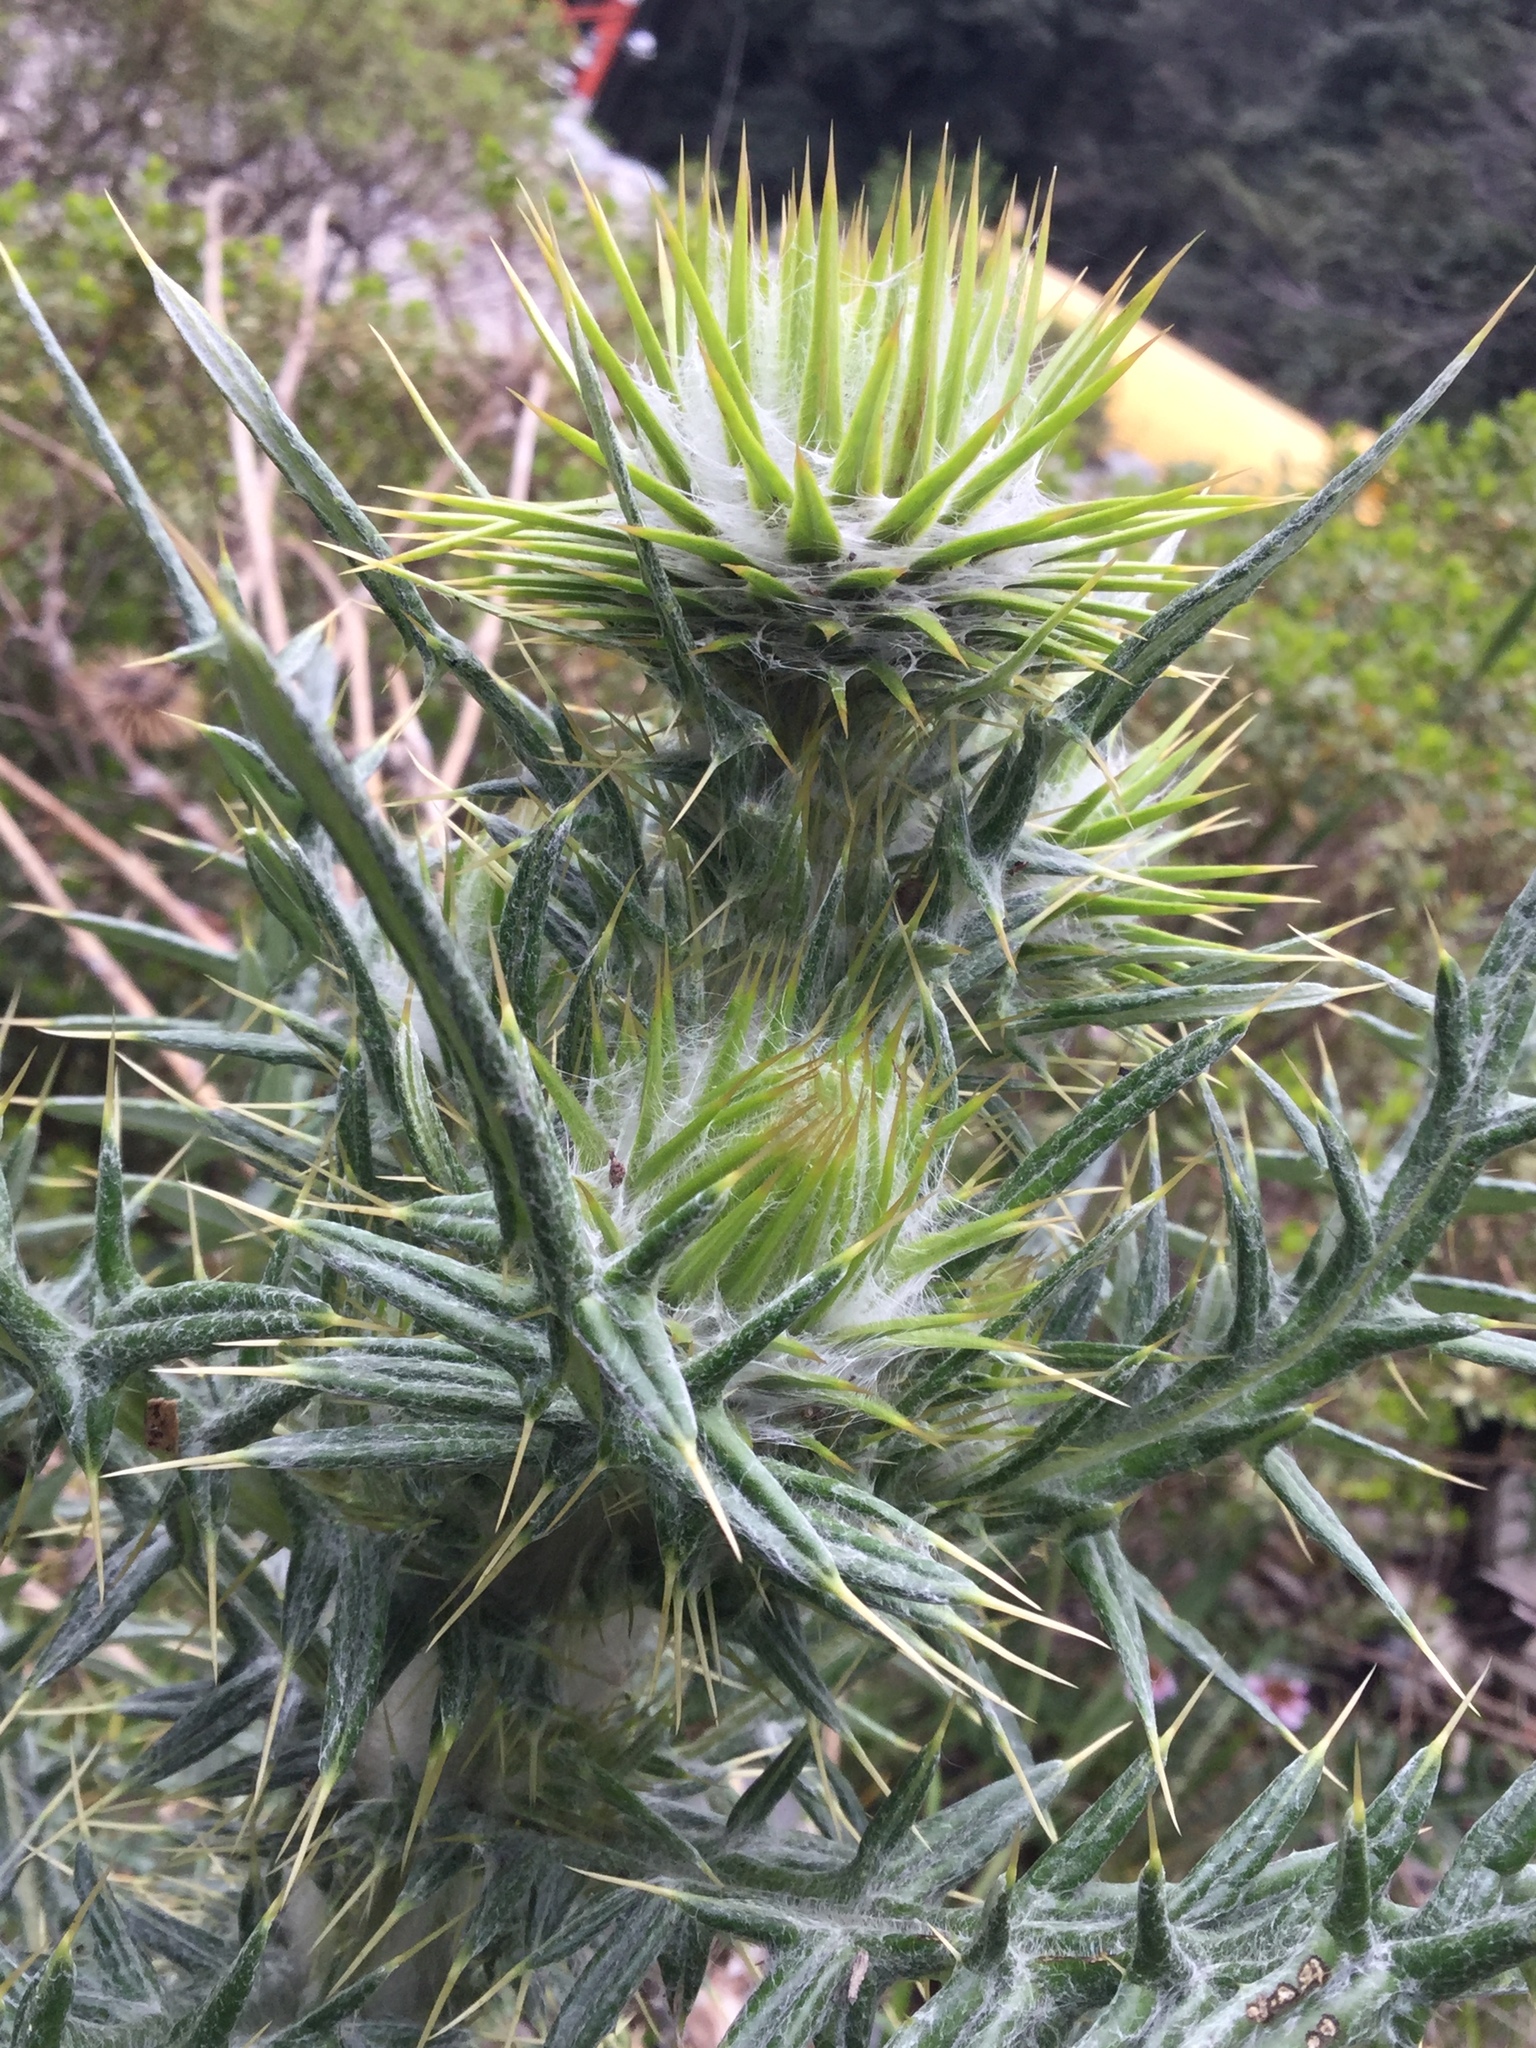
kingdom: Plantae
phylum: Tracheophyta
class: Magnoliopsida
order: Asterales
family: Asteraceae
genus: Cirsium
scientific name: Cirsium zamoranense
